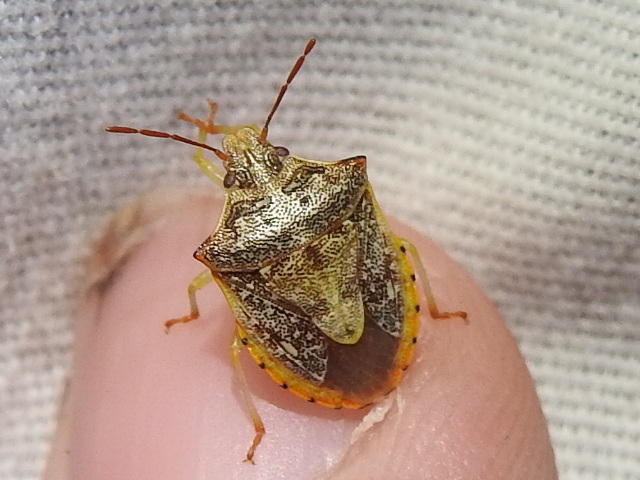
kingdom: Animalia
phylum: Arthropoda
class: Insecta
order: Hemiptera
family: Pentatomidae
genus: Dendrocoris
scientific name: Dendrocoris humeralis
